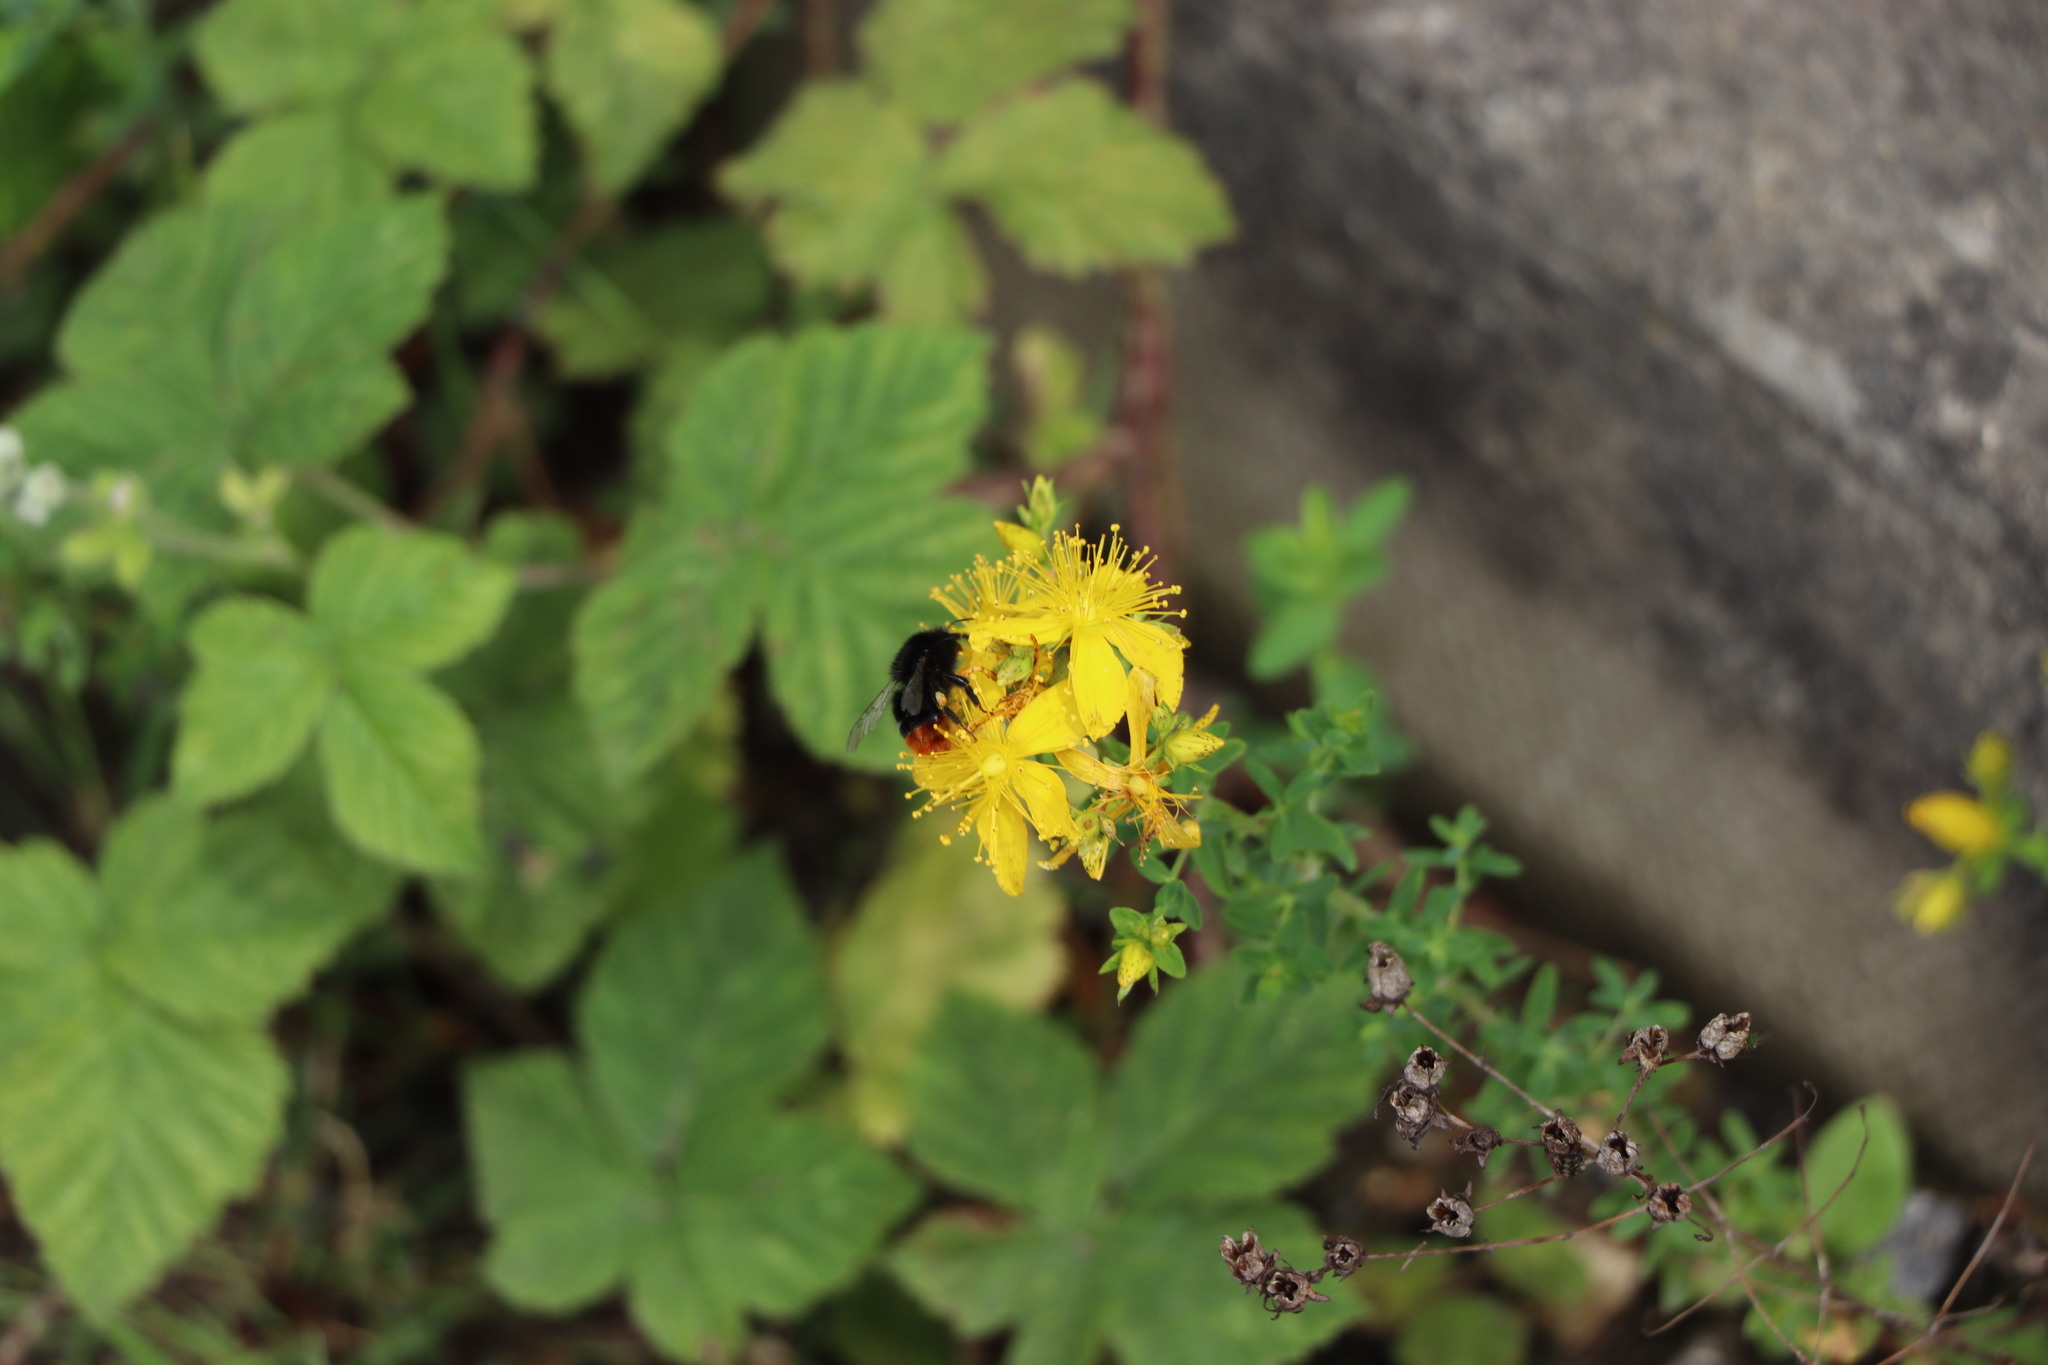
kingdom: Animalia
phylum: Arthropoda
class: Insecta
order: Hymenoptera
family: Apidae
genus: Bombus
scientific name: Bombus lapidarius
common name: Large red-tailed humble-bee
